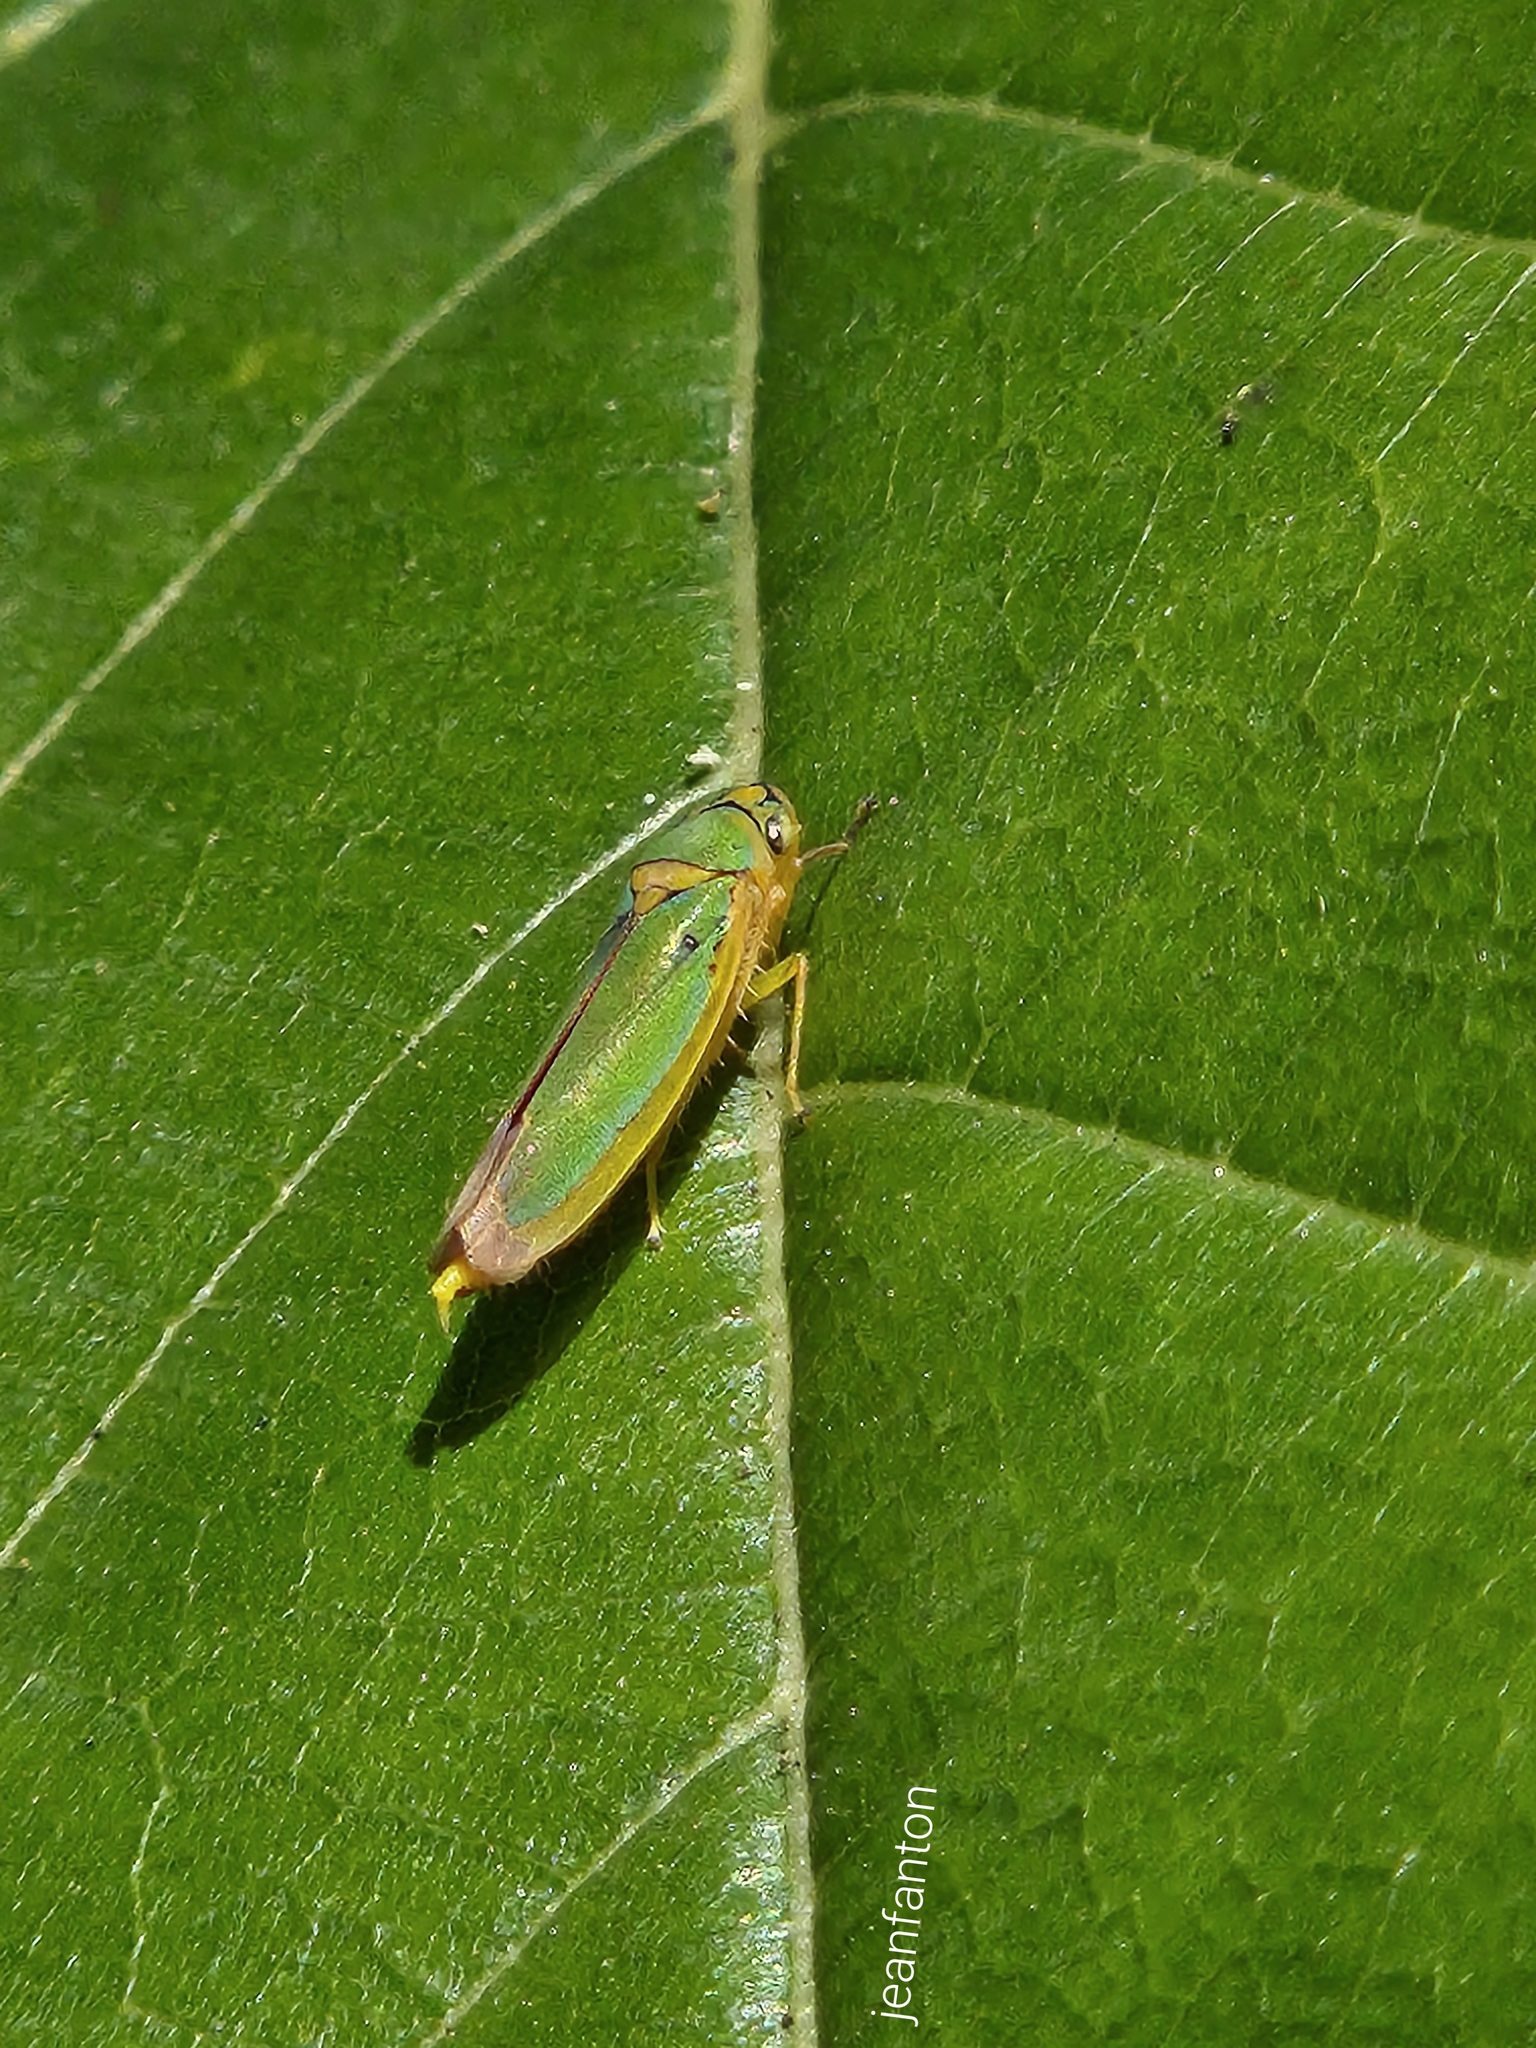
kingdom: Animalia
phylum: Arthropoda
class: Insecta
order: Hemiptera
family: Cicadellidae
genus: Catagonalia
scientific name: Catagonalia conjunctula
